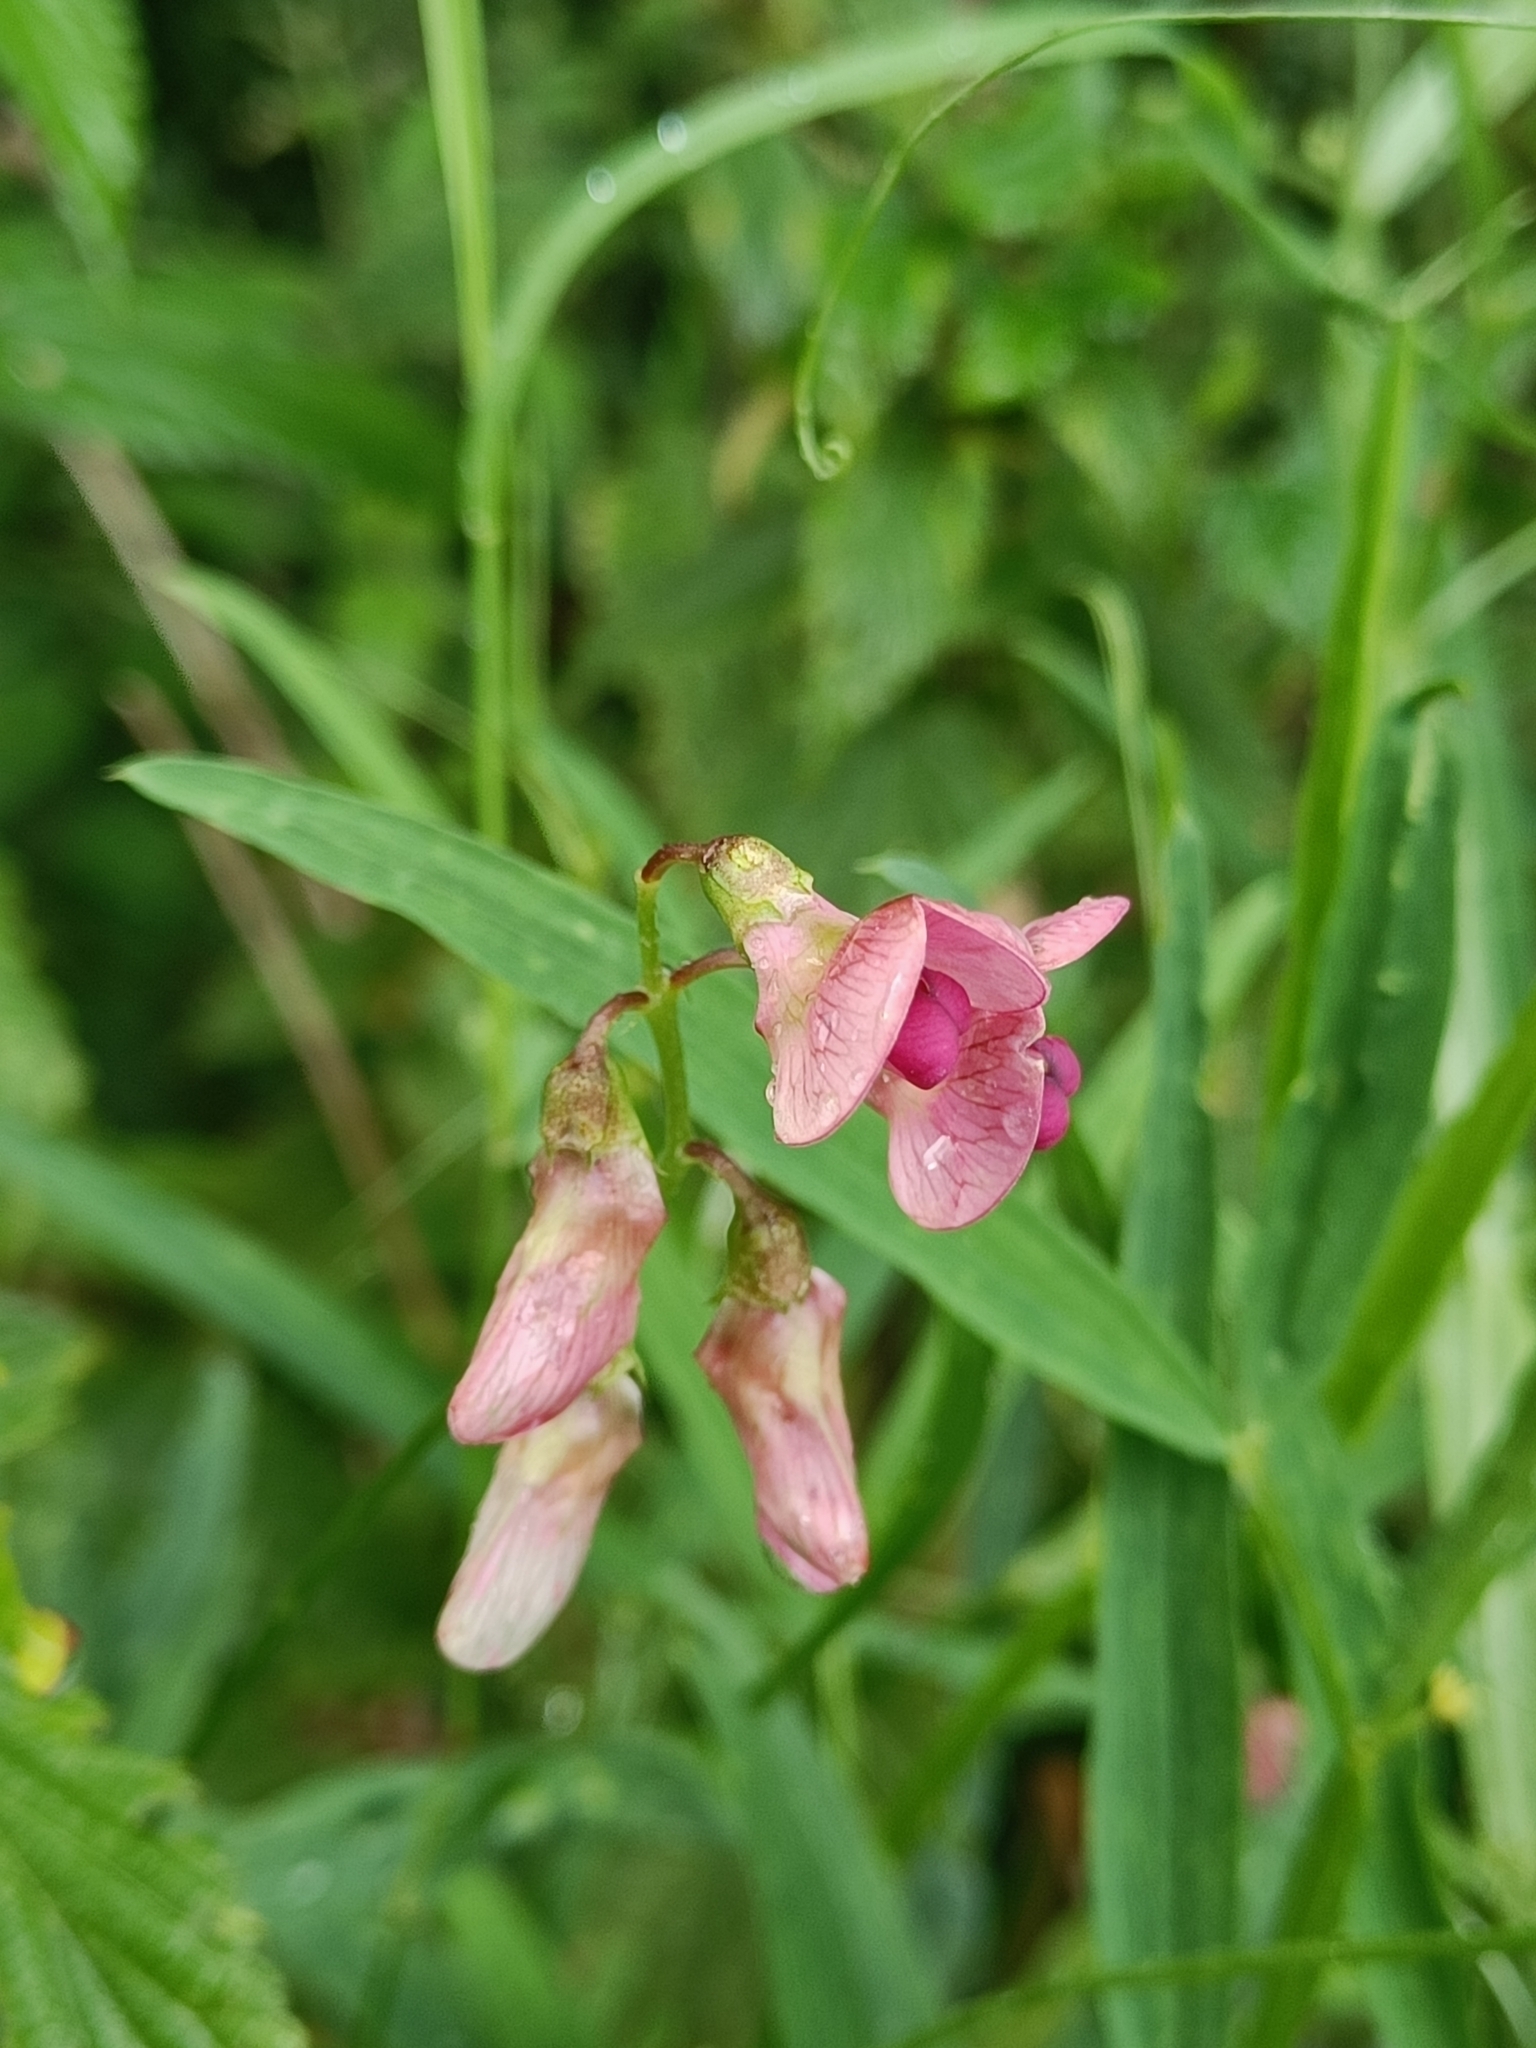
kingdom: Plantae
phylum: Tracheophyta
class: Magnoliopsida
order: Fabales
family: Fabaceae
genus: Lathyrus
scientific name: Lathyrus sylvestris
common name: Flat pea
